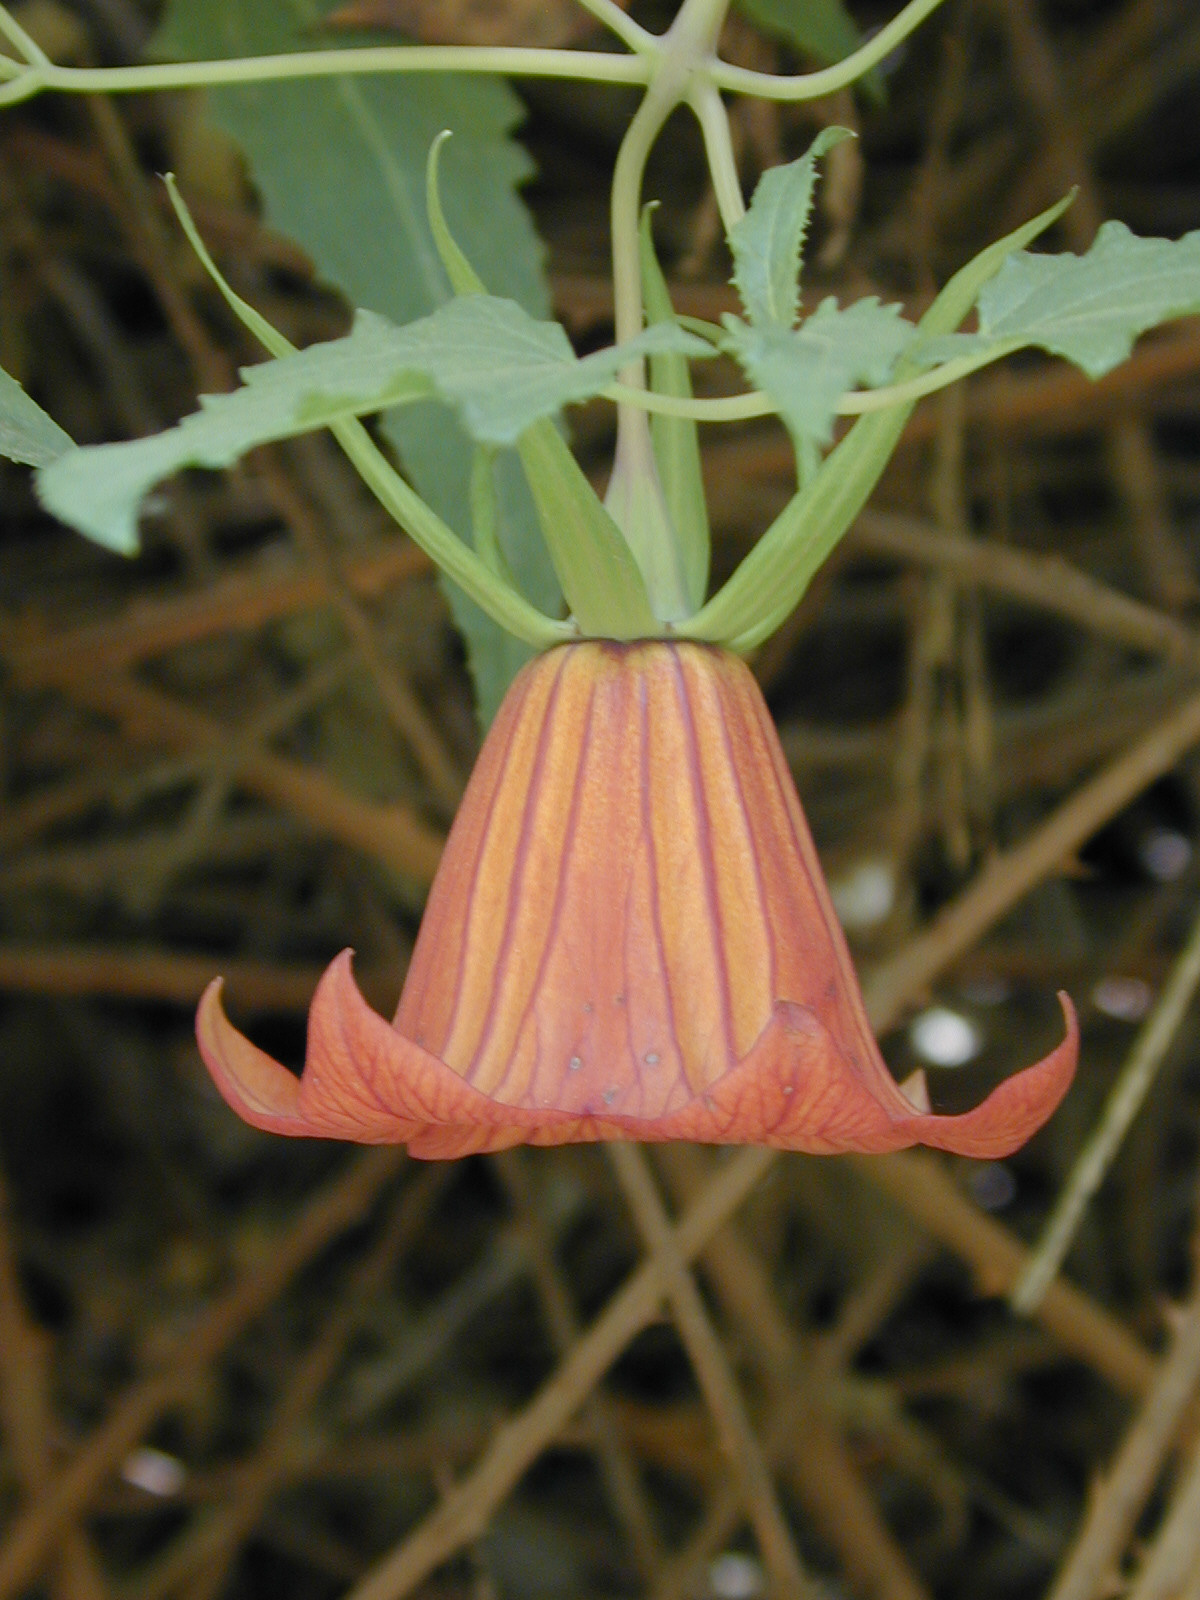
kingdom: Plantae
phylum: Tracheophyta
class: Magnoliopsida
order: Asterales
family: Campanulaceae
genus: Canarina
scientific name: Canarina canariensis
